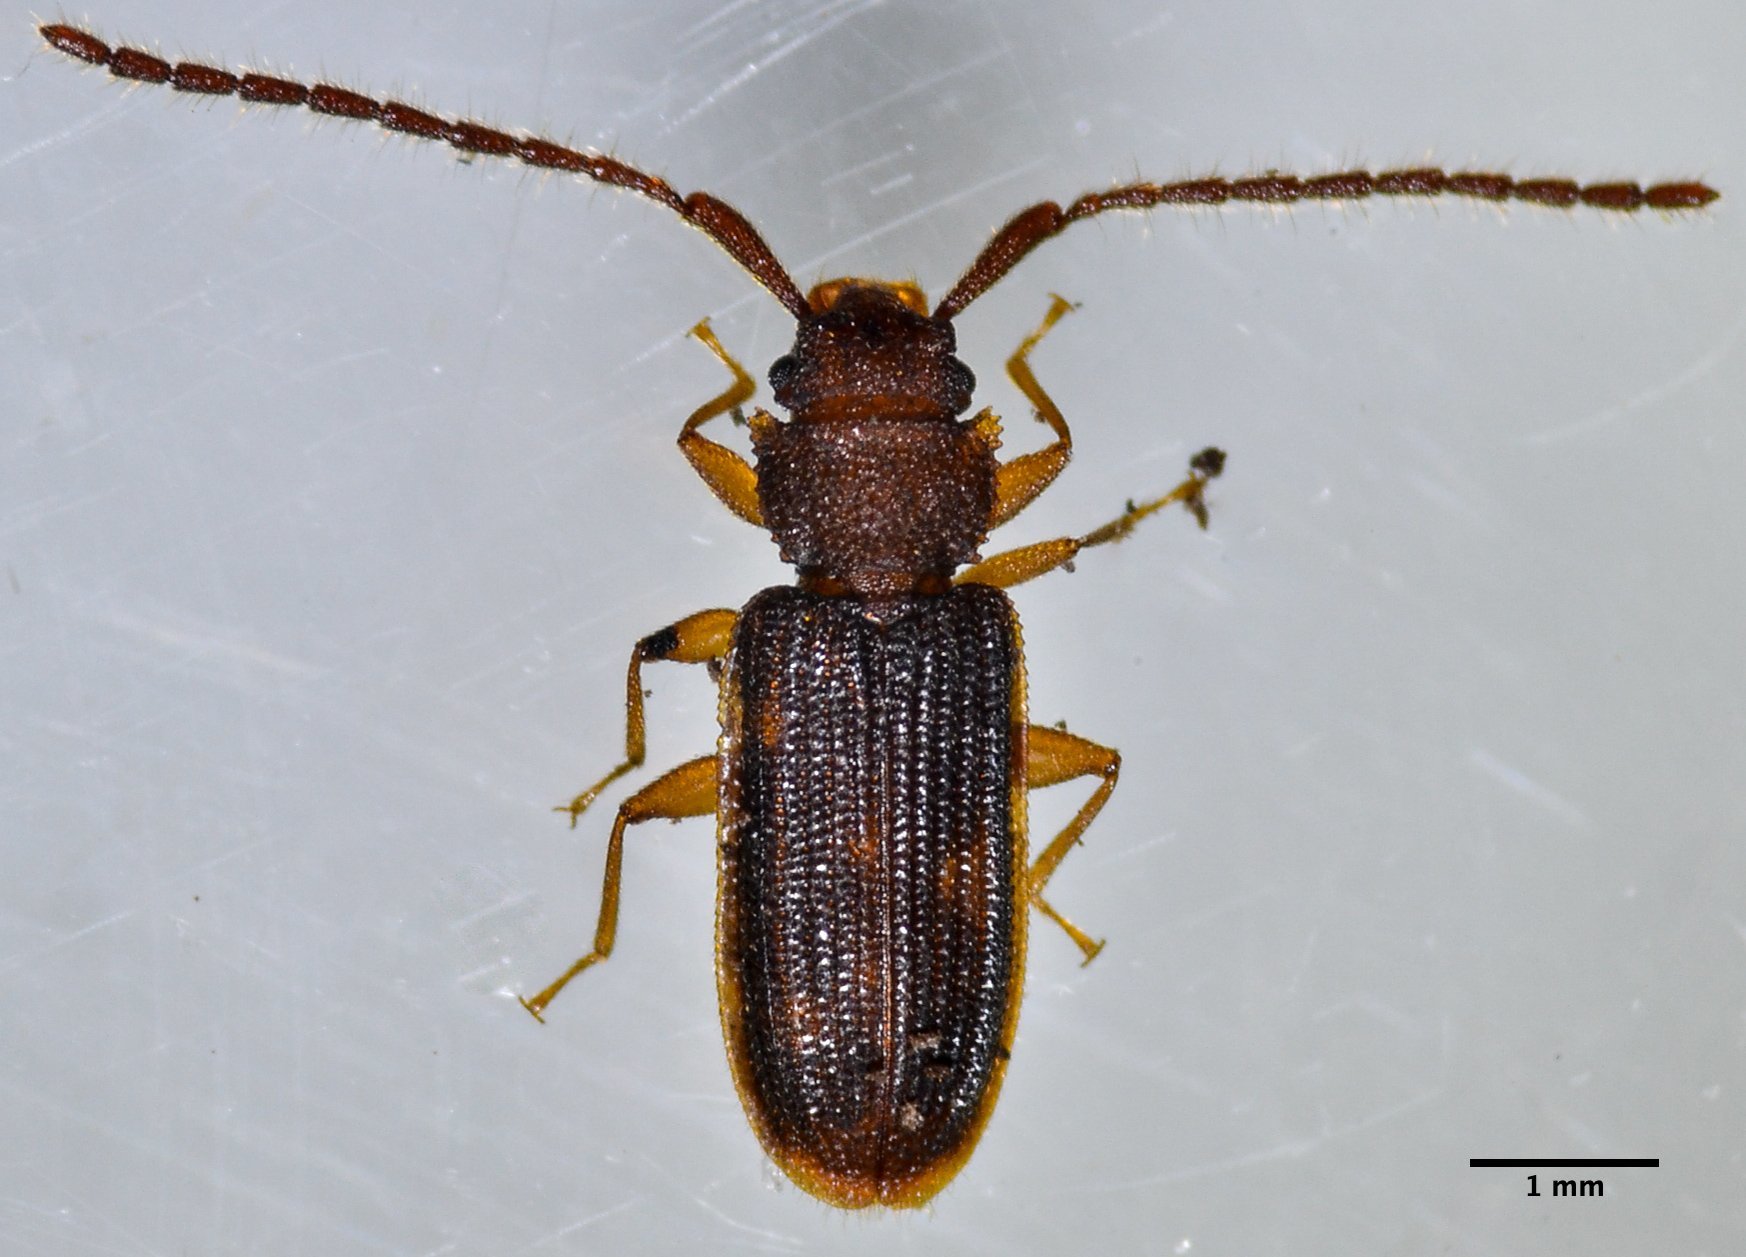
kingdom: Animalia
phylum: Arthropoda
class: Insecta
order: Coleoptera
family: Silvanidae
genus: Uleiota
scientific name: Uleiota
